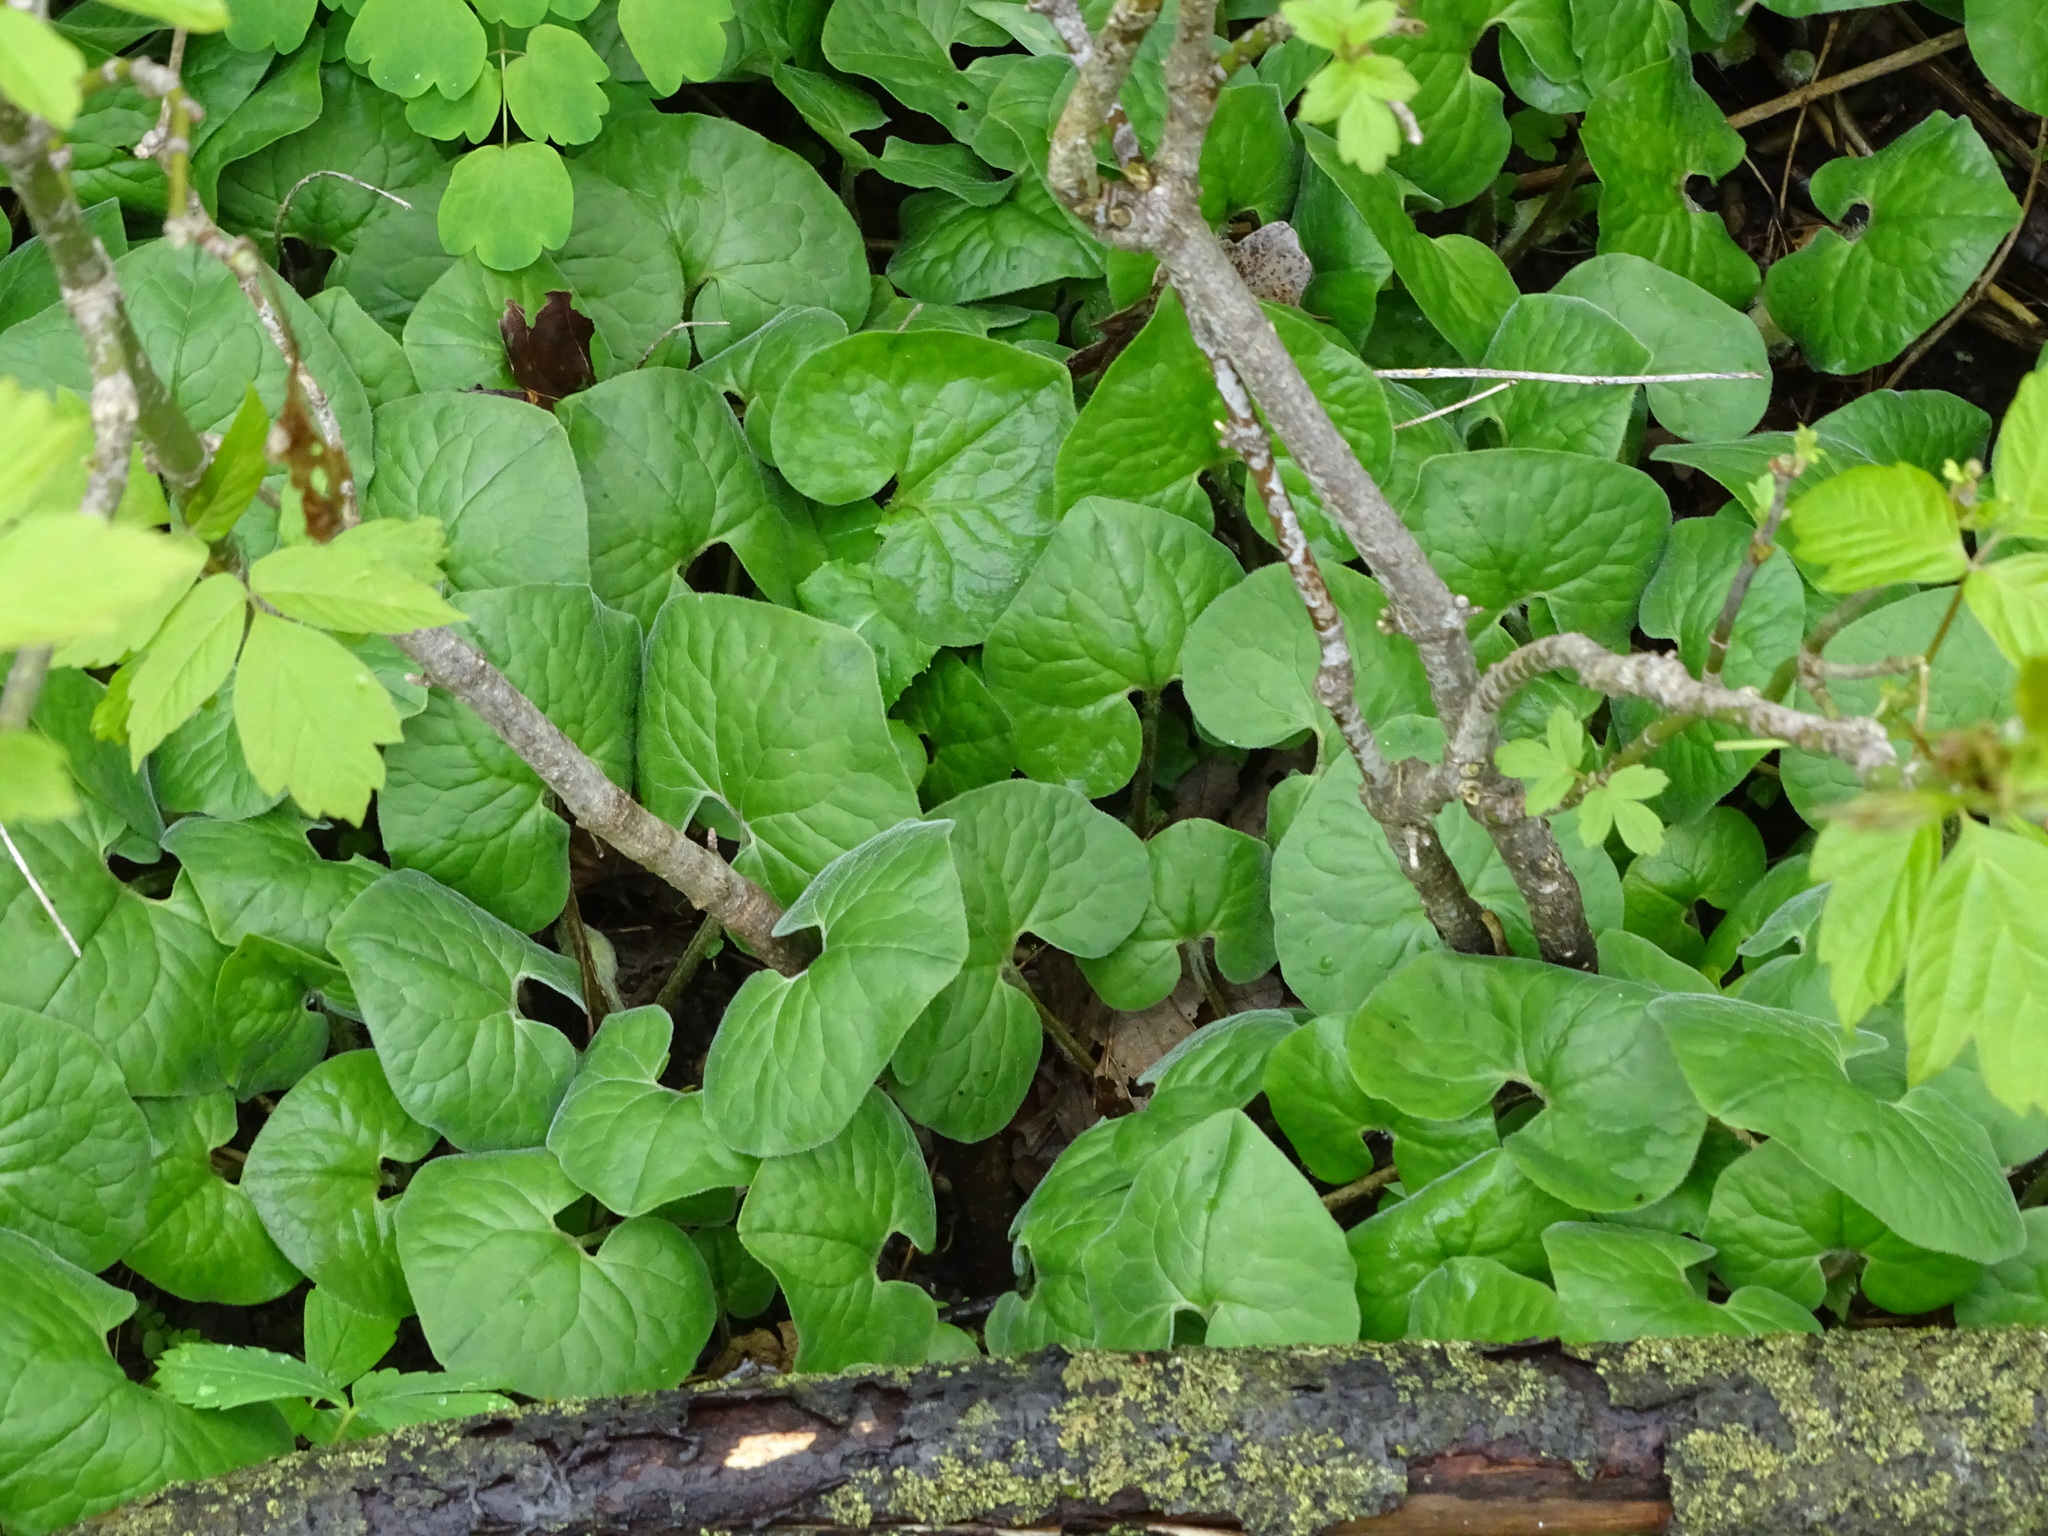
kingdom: Plantae
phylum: Tracheophyta
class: Magnoliopsida
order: Piperales
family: Aristolochiaceae
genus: Asarum
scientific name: Asarum canadense
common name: Wild ginger
